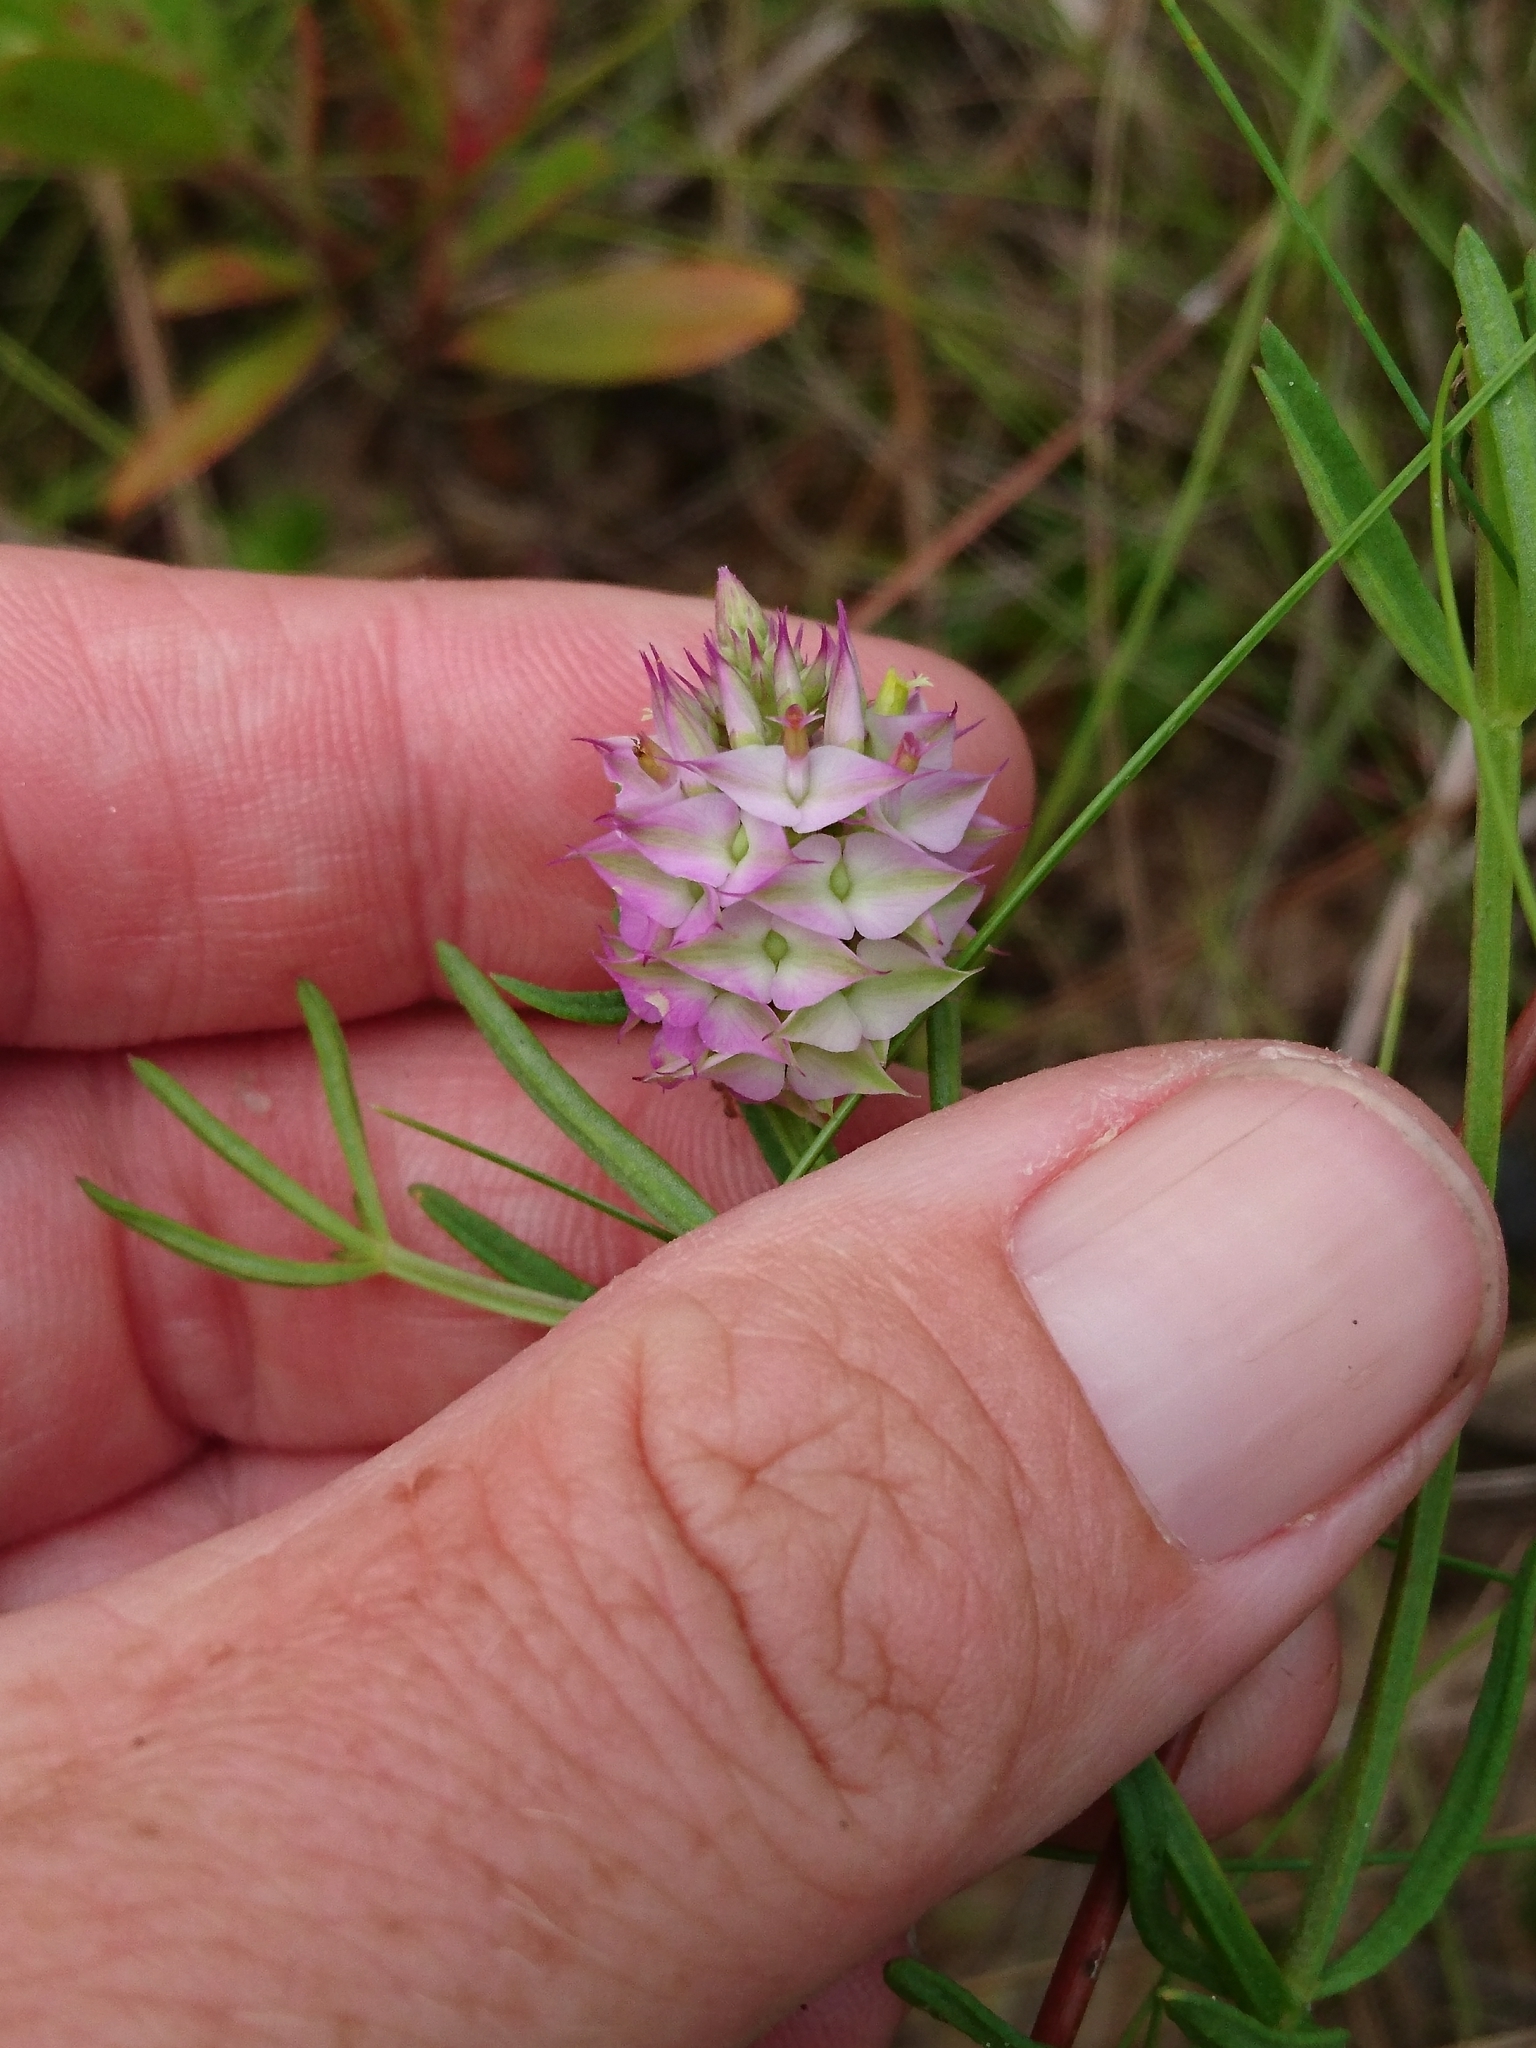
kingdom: Plantae
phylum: Tracheophyta
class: Magnoliopsida
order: Fabales
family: Polygalaceae
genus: Polygala
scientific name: Polygala cruciata
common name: Drumheads
